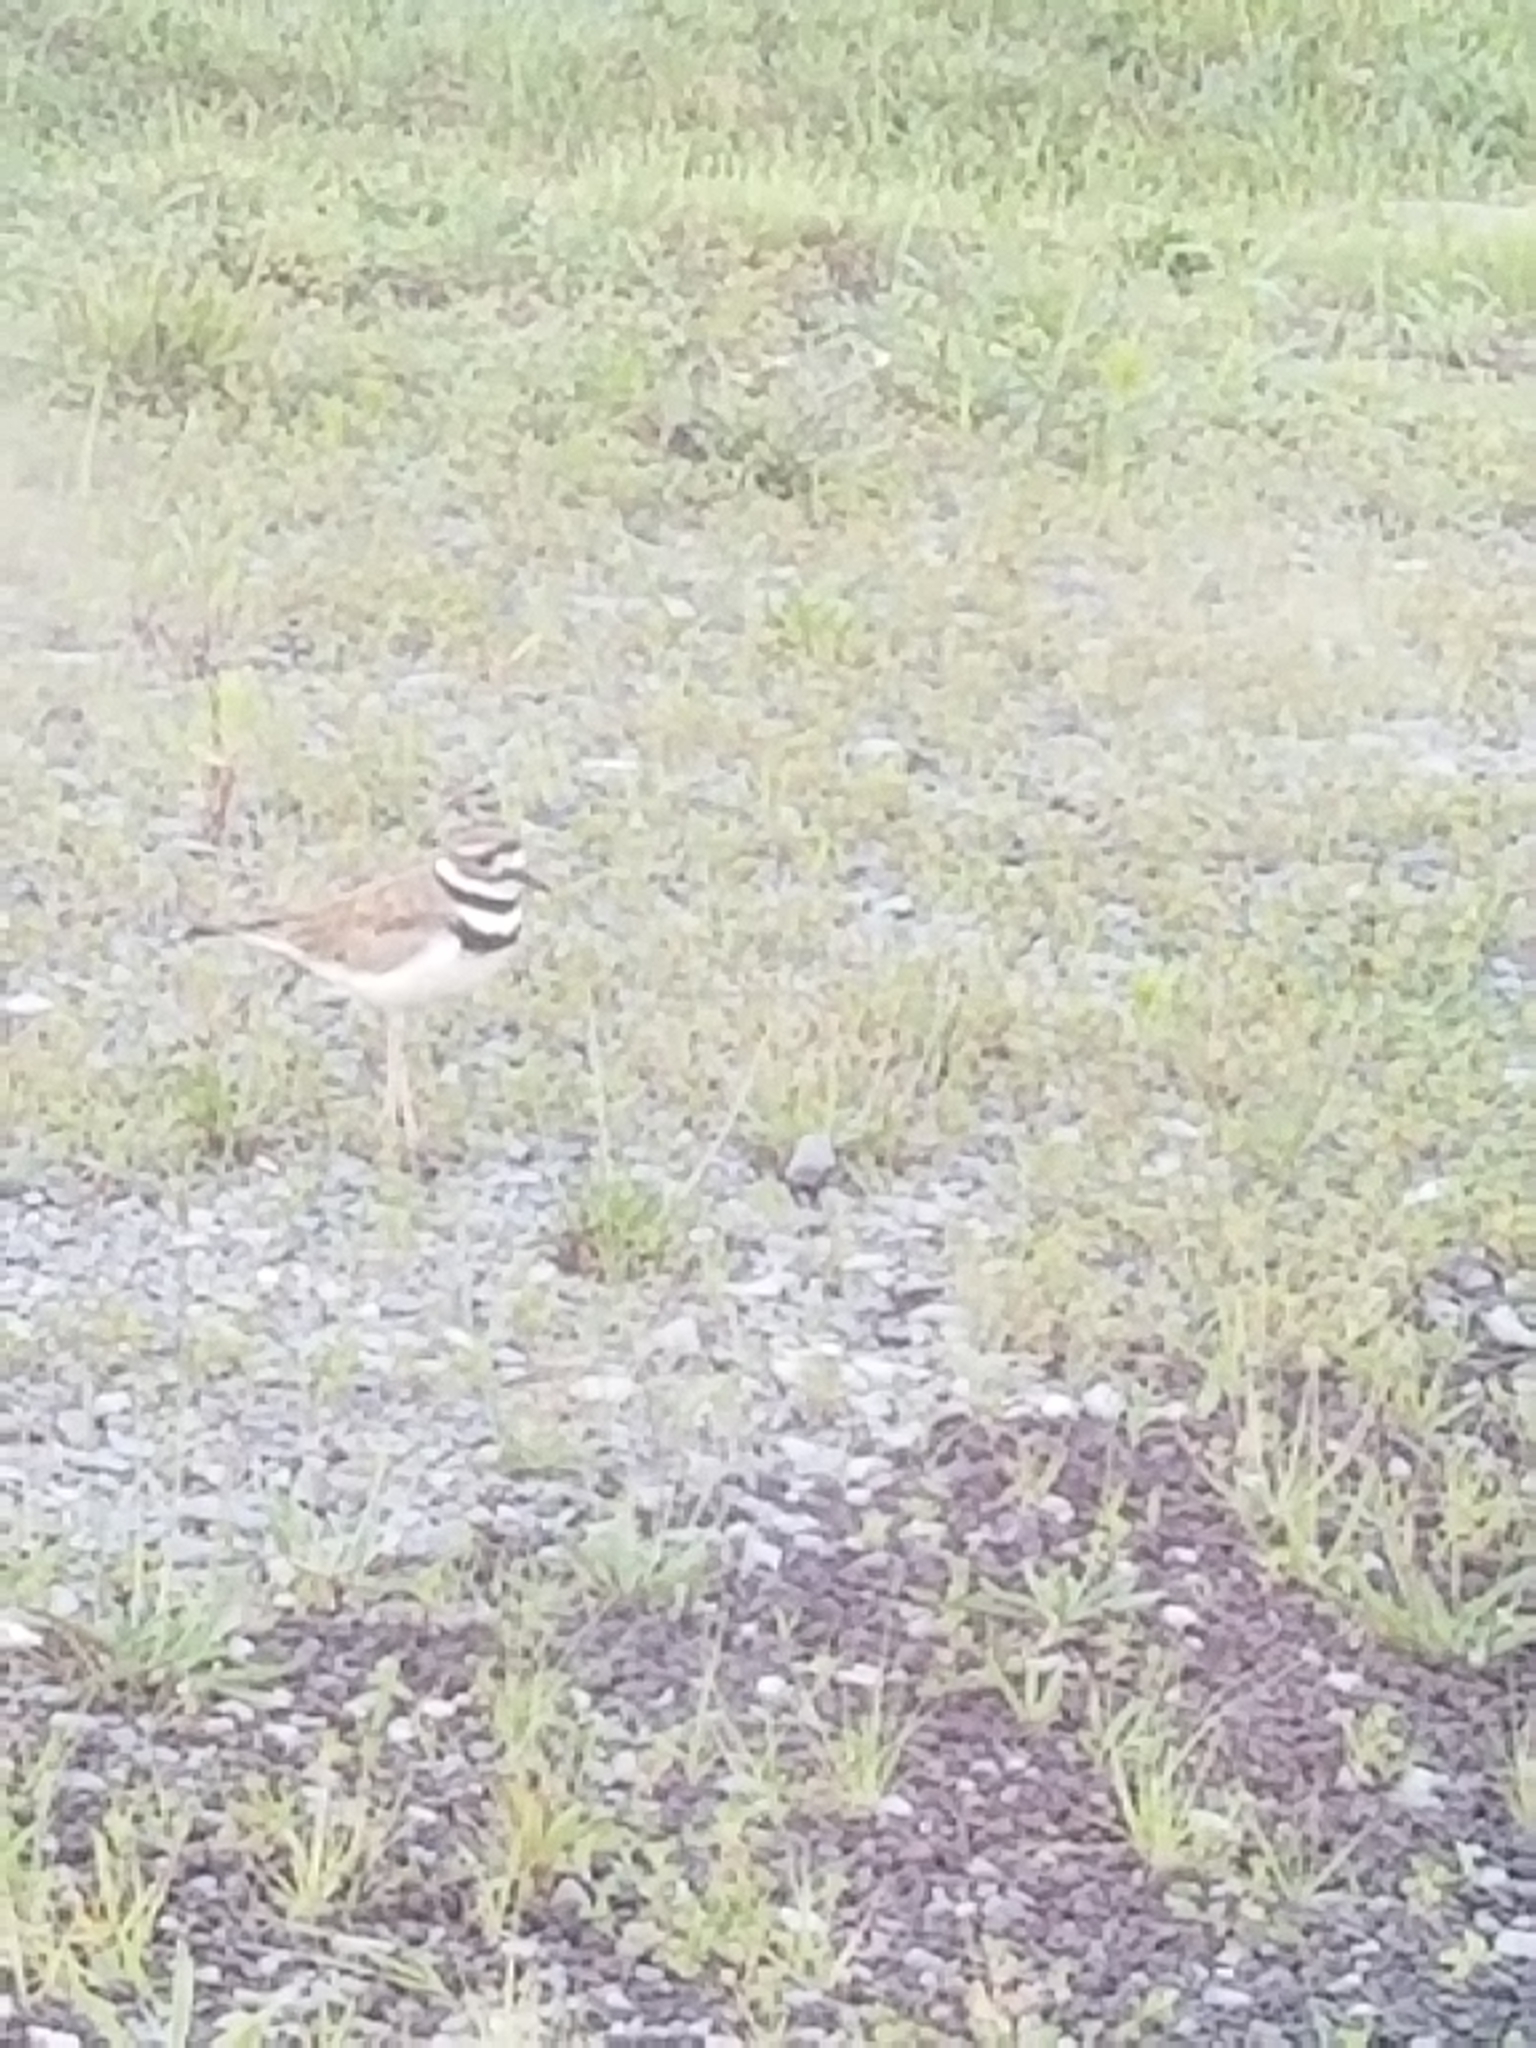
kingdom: Animalia
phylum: Chordata
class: Aves
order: Charadriiformes
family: Charadriidae
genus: Charadrius
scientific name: Charadrius vociferus
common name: Killdeer
